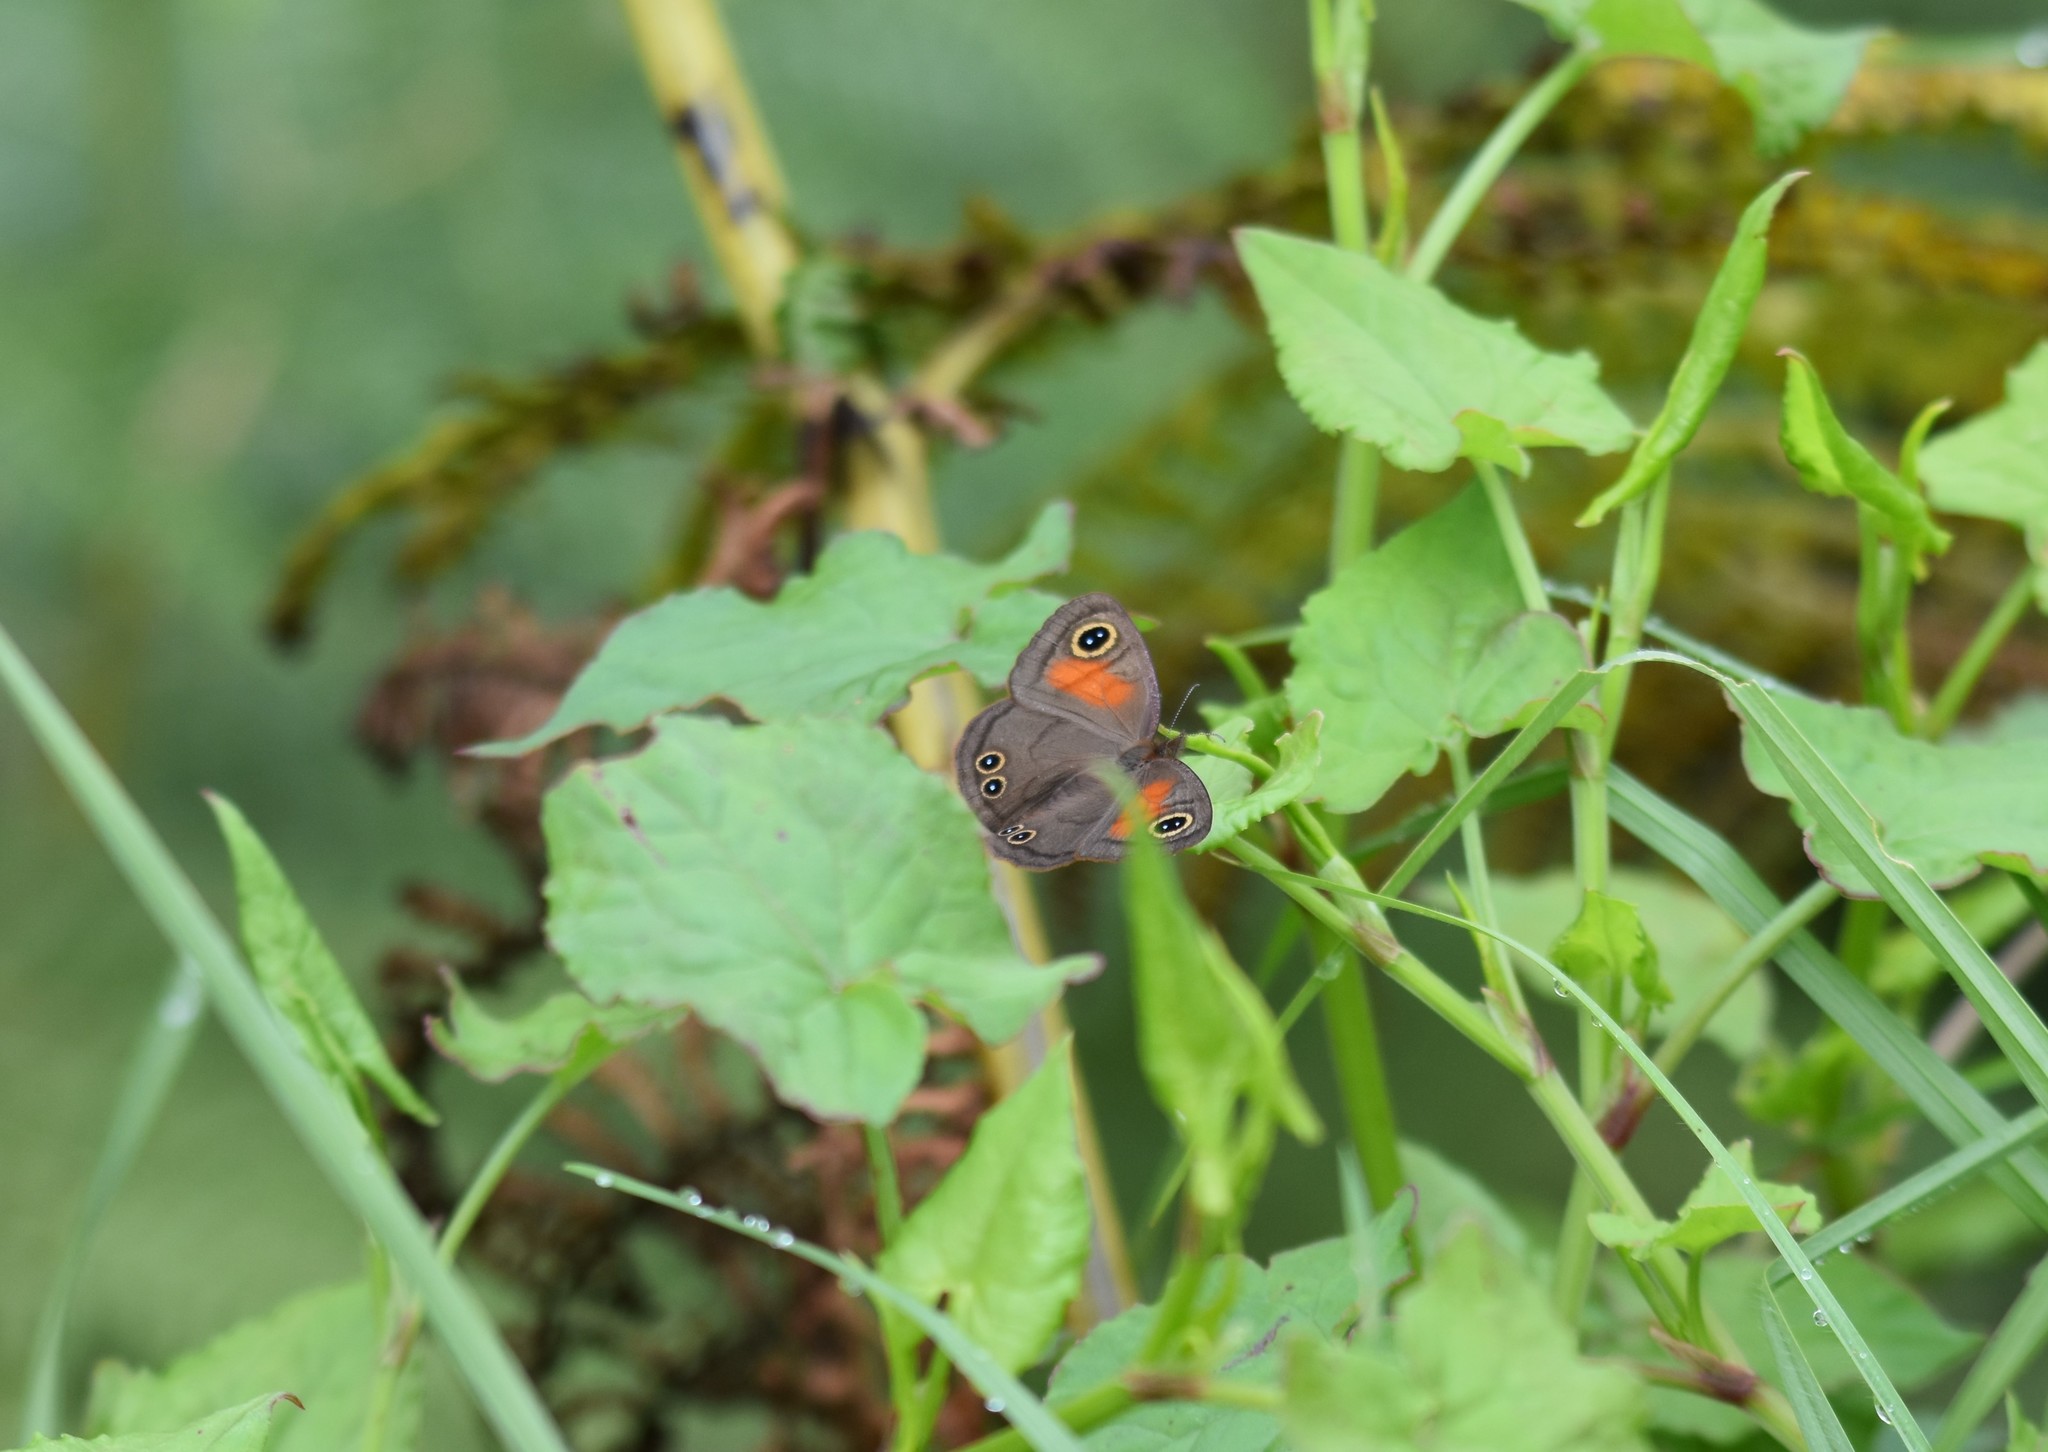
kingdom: Animalia
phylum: Arthropoda
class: Insecta
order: Lepidoptera
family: Nymphalidae
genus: Cassionympha
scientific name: Cassionympha cassius
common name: Rainforest brown
